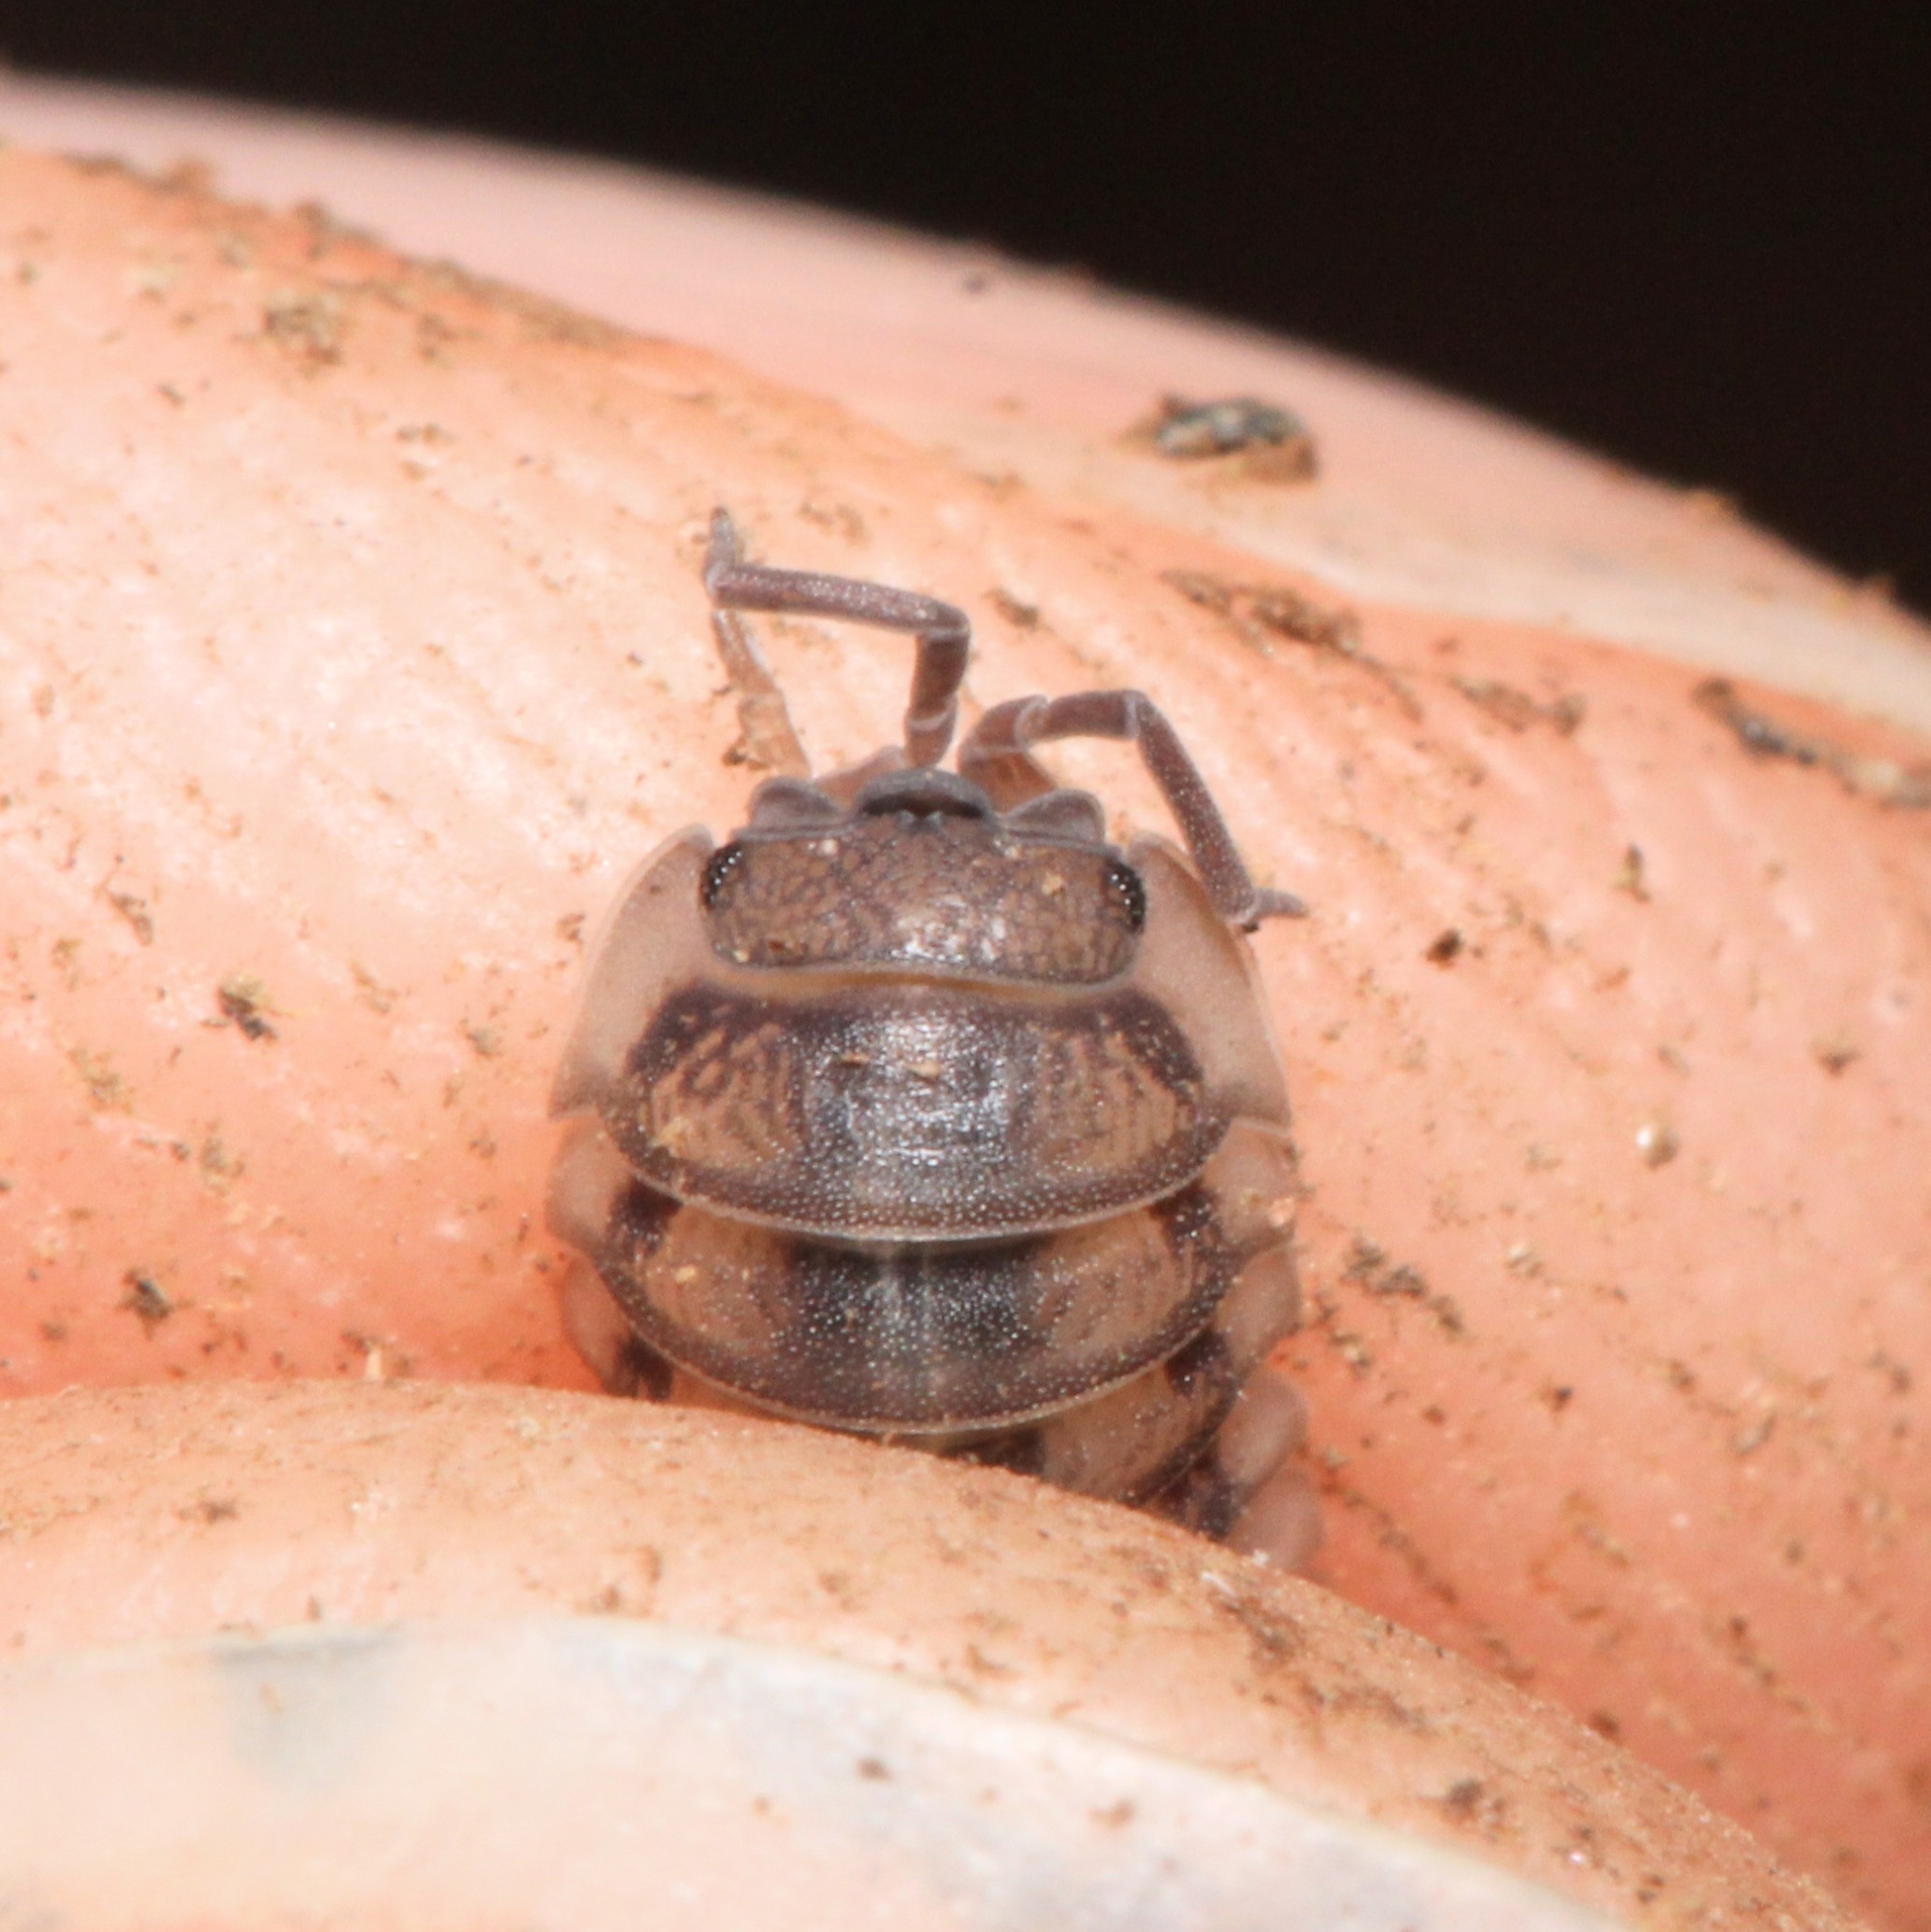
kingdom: Animalia
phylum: Arthropoda
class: Malacostraca
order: Isopoda
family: Armadillidiidae
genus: Armadillidium
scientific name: Armadillidium nasatum
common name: Isopod
